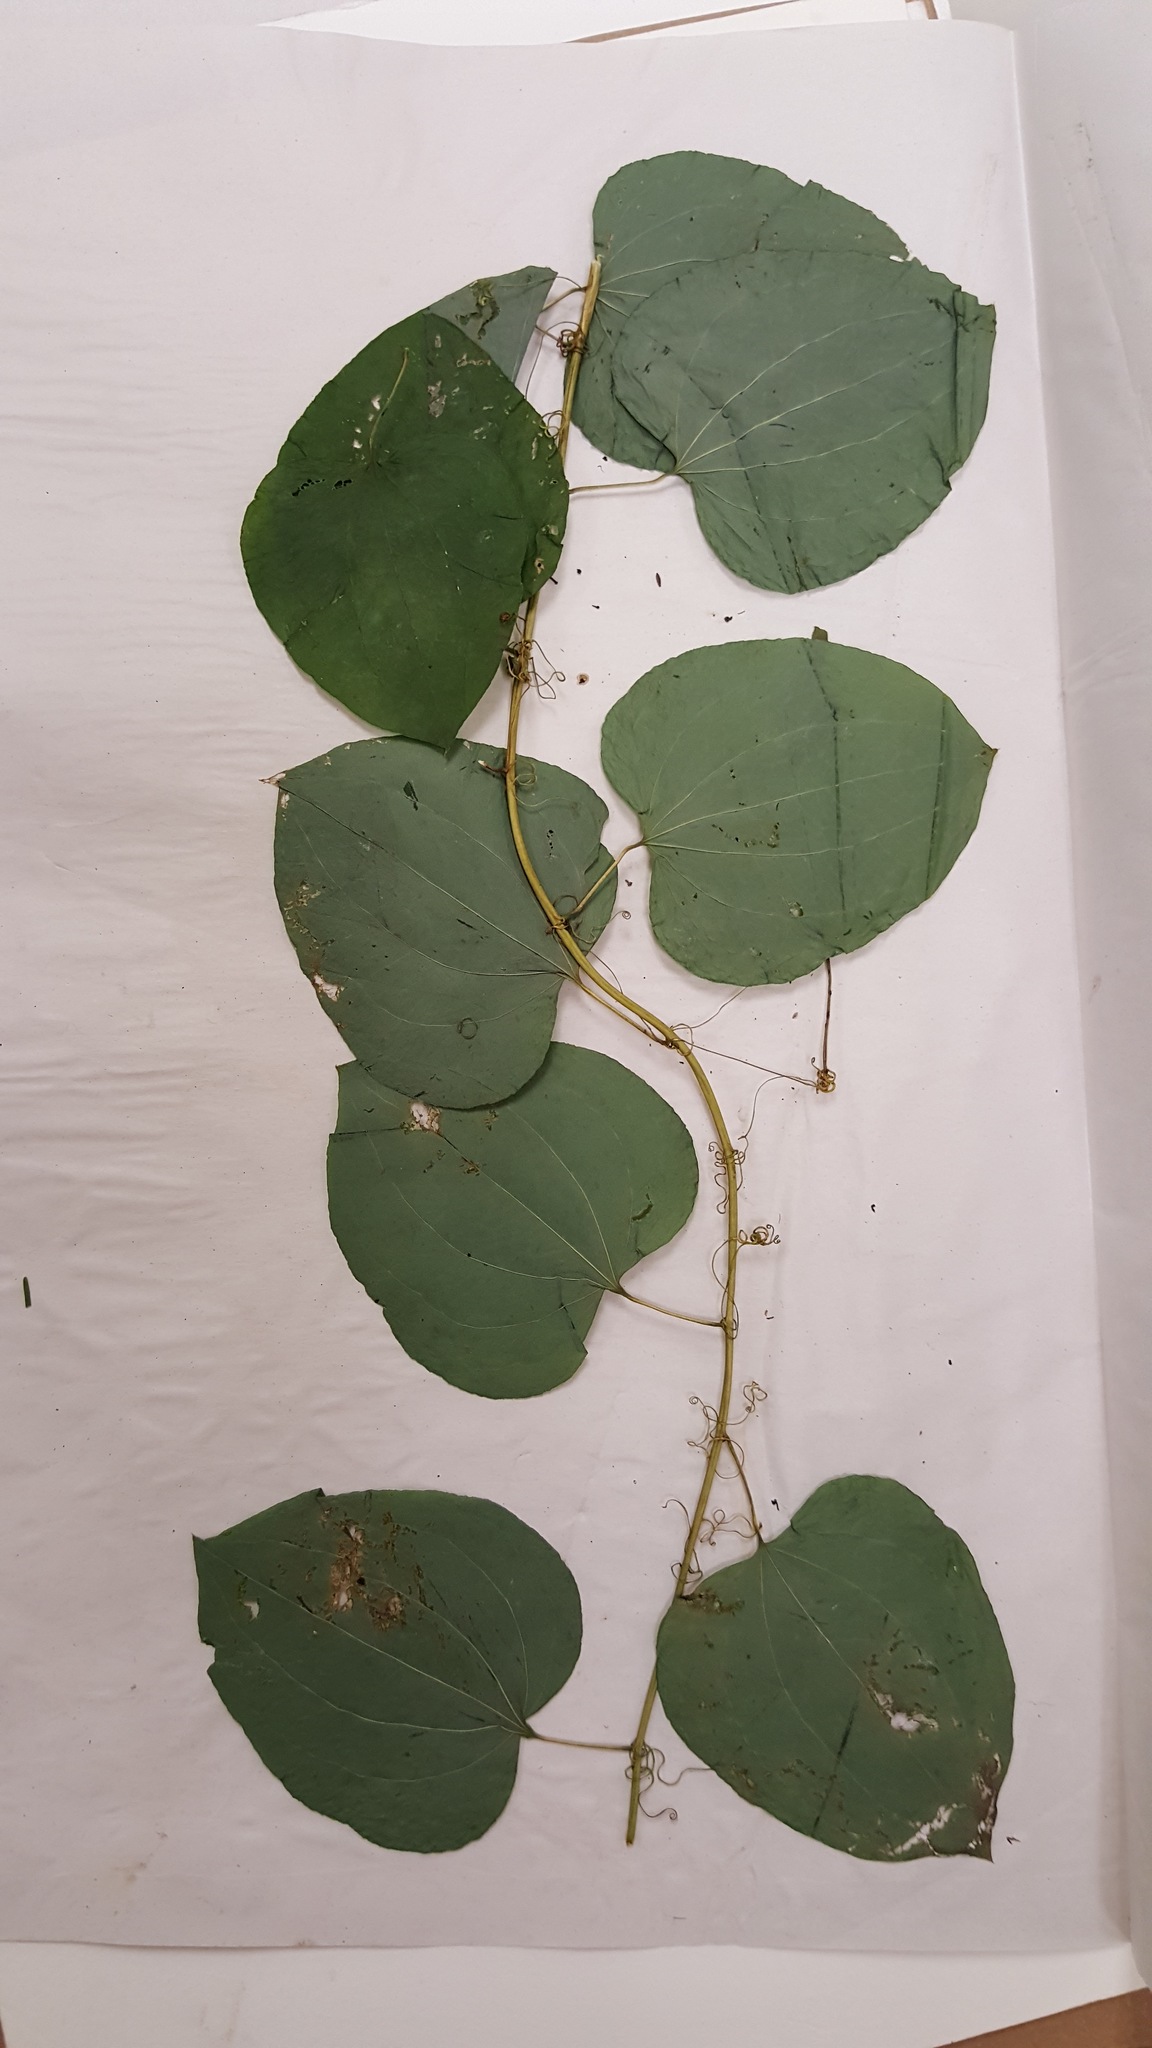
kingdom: Plantae
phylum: Tracheophyta
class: Liliopsida
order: Liliales
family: Smilacaceae
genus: Smilax
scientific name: Smilax herbacea
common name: Jacob's-ladder
